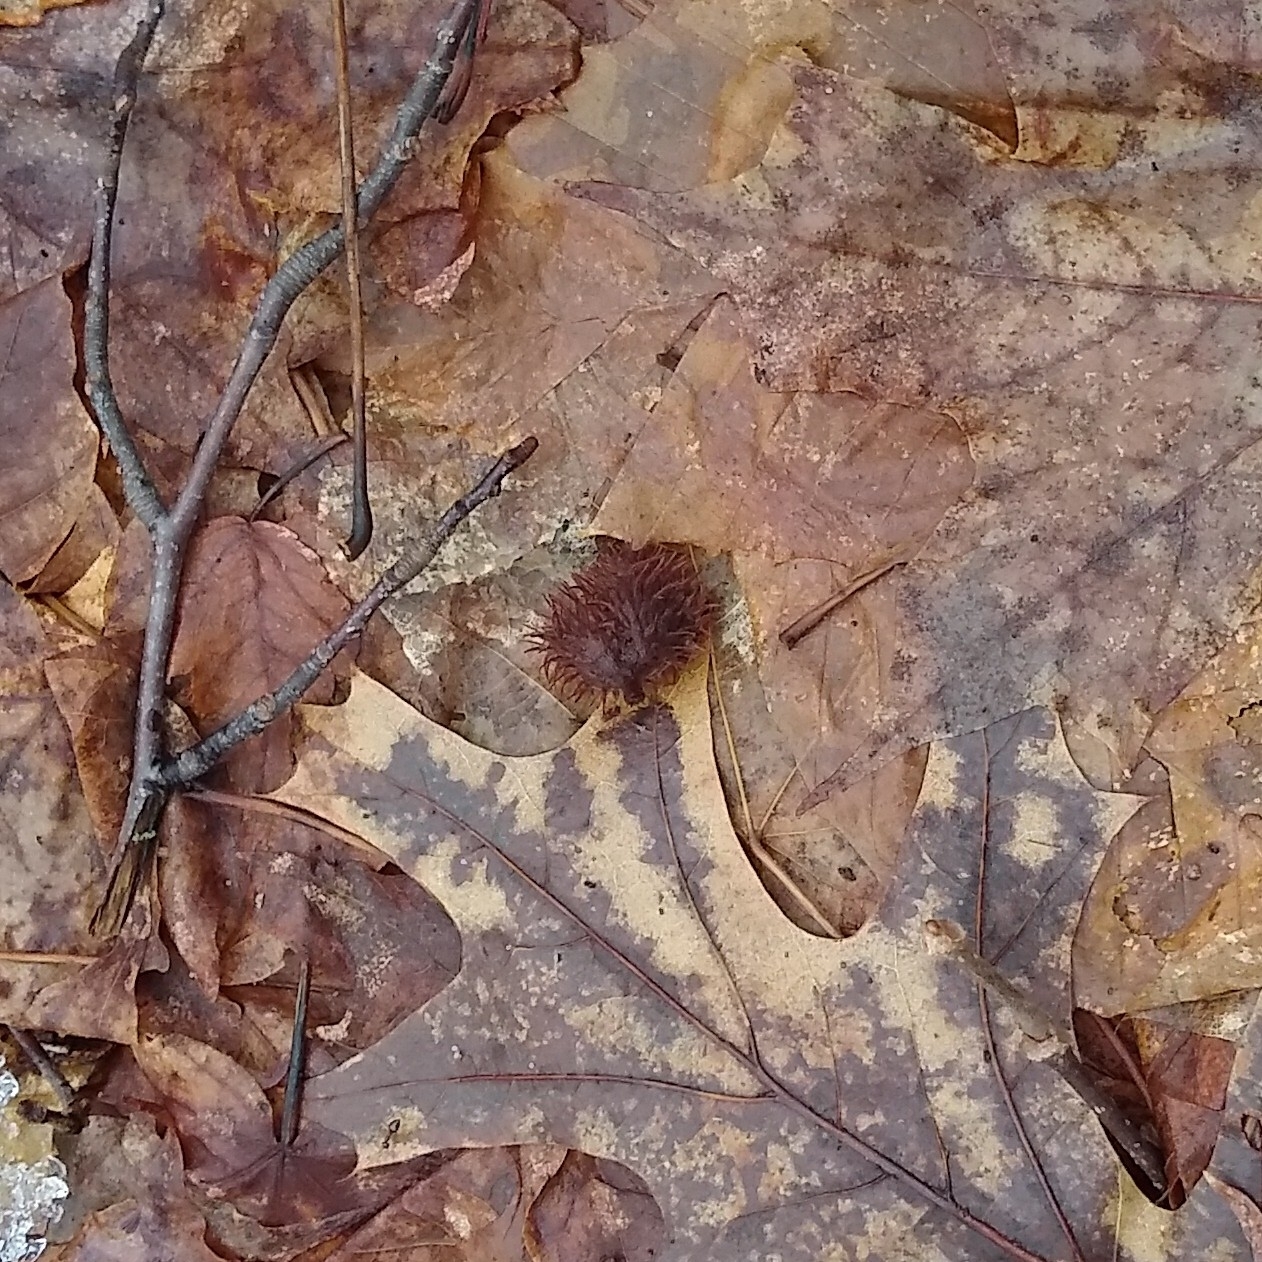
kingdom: Plantae
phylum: Tracheophyta
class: Magnoliopsida
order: Fagales
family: Fagaceae
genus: Fagus
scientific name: Fagus grandifolia
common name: American beech
